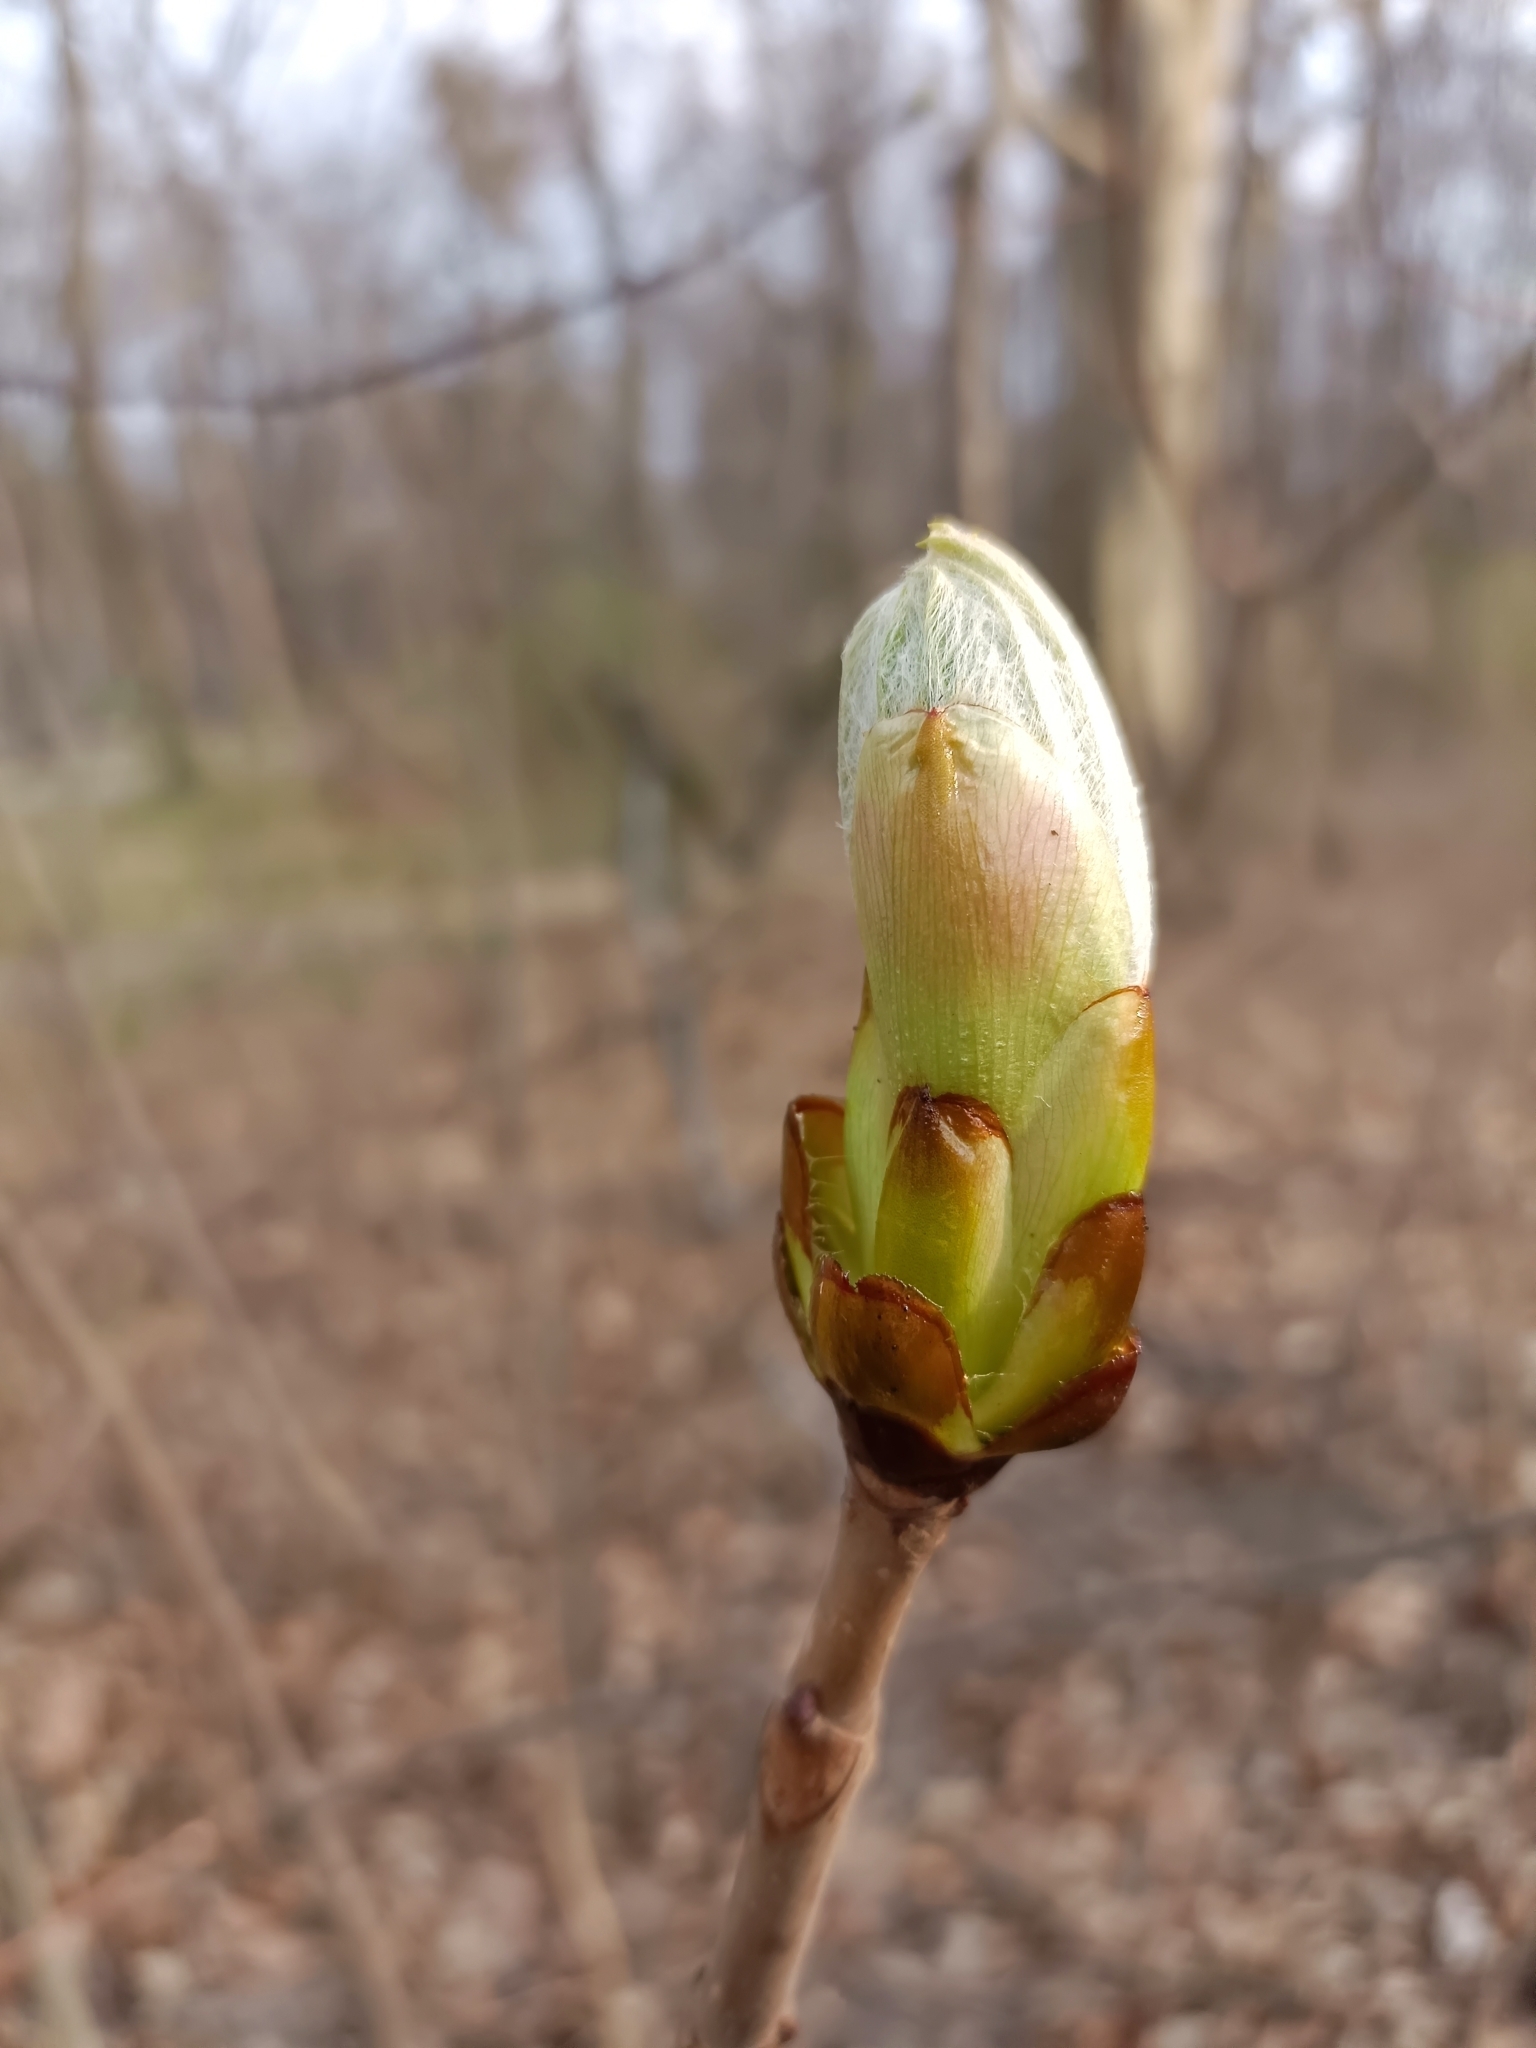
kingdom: Plantae
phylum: Tracheophyta
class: Magnoliopsida
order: Sapindales
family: Sapindaceae
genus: Aesculus
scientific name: Aesculus hippocastanum
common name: Horse-chestnut
